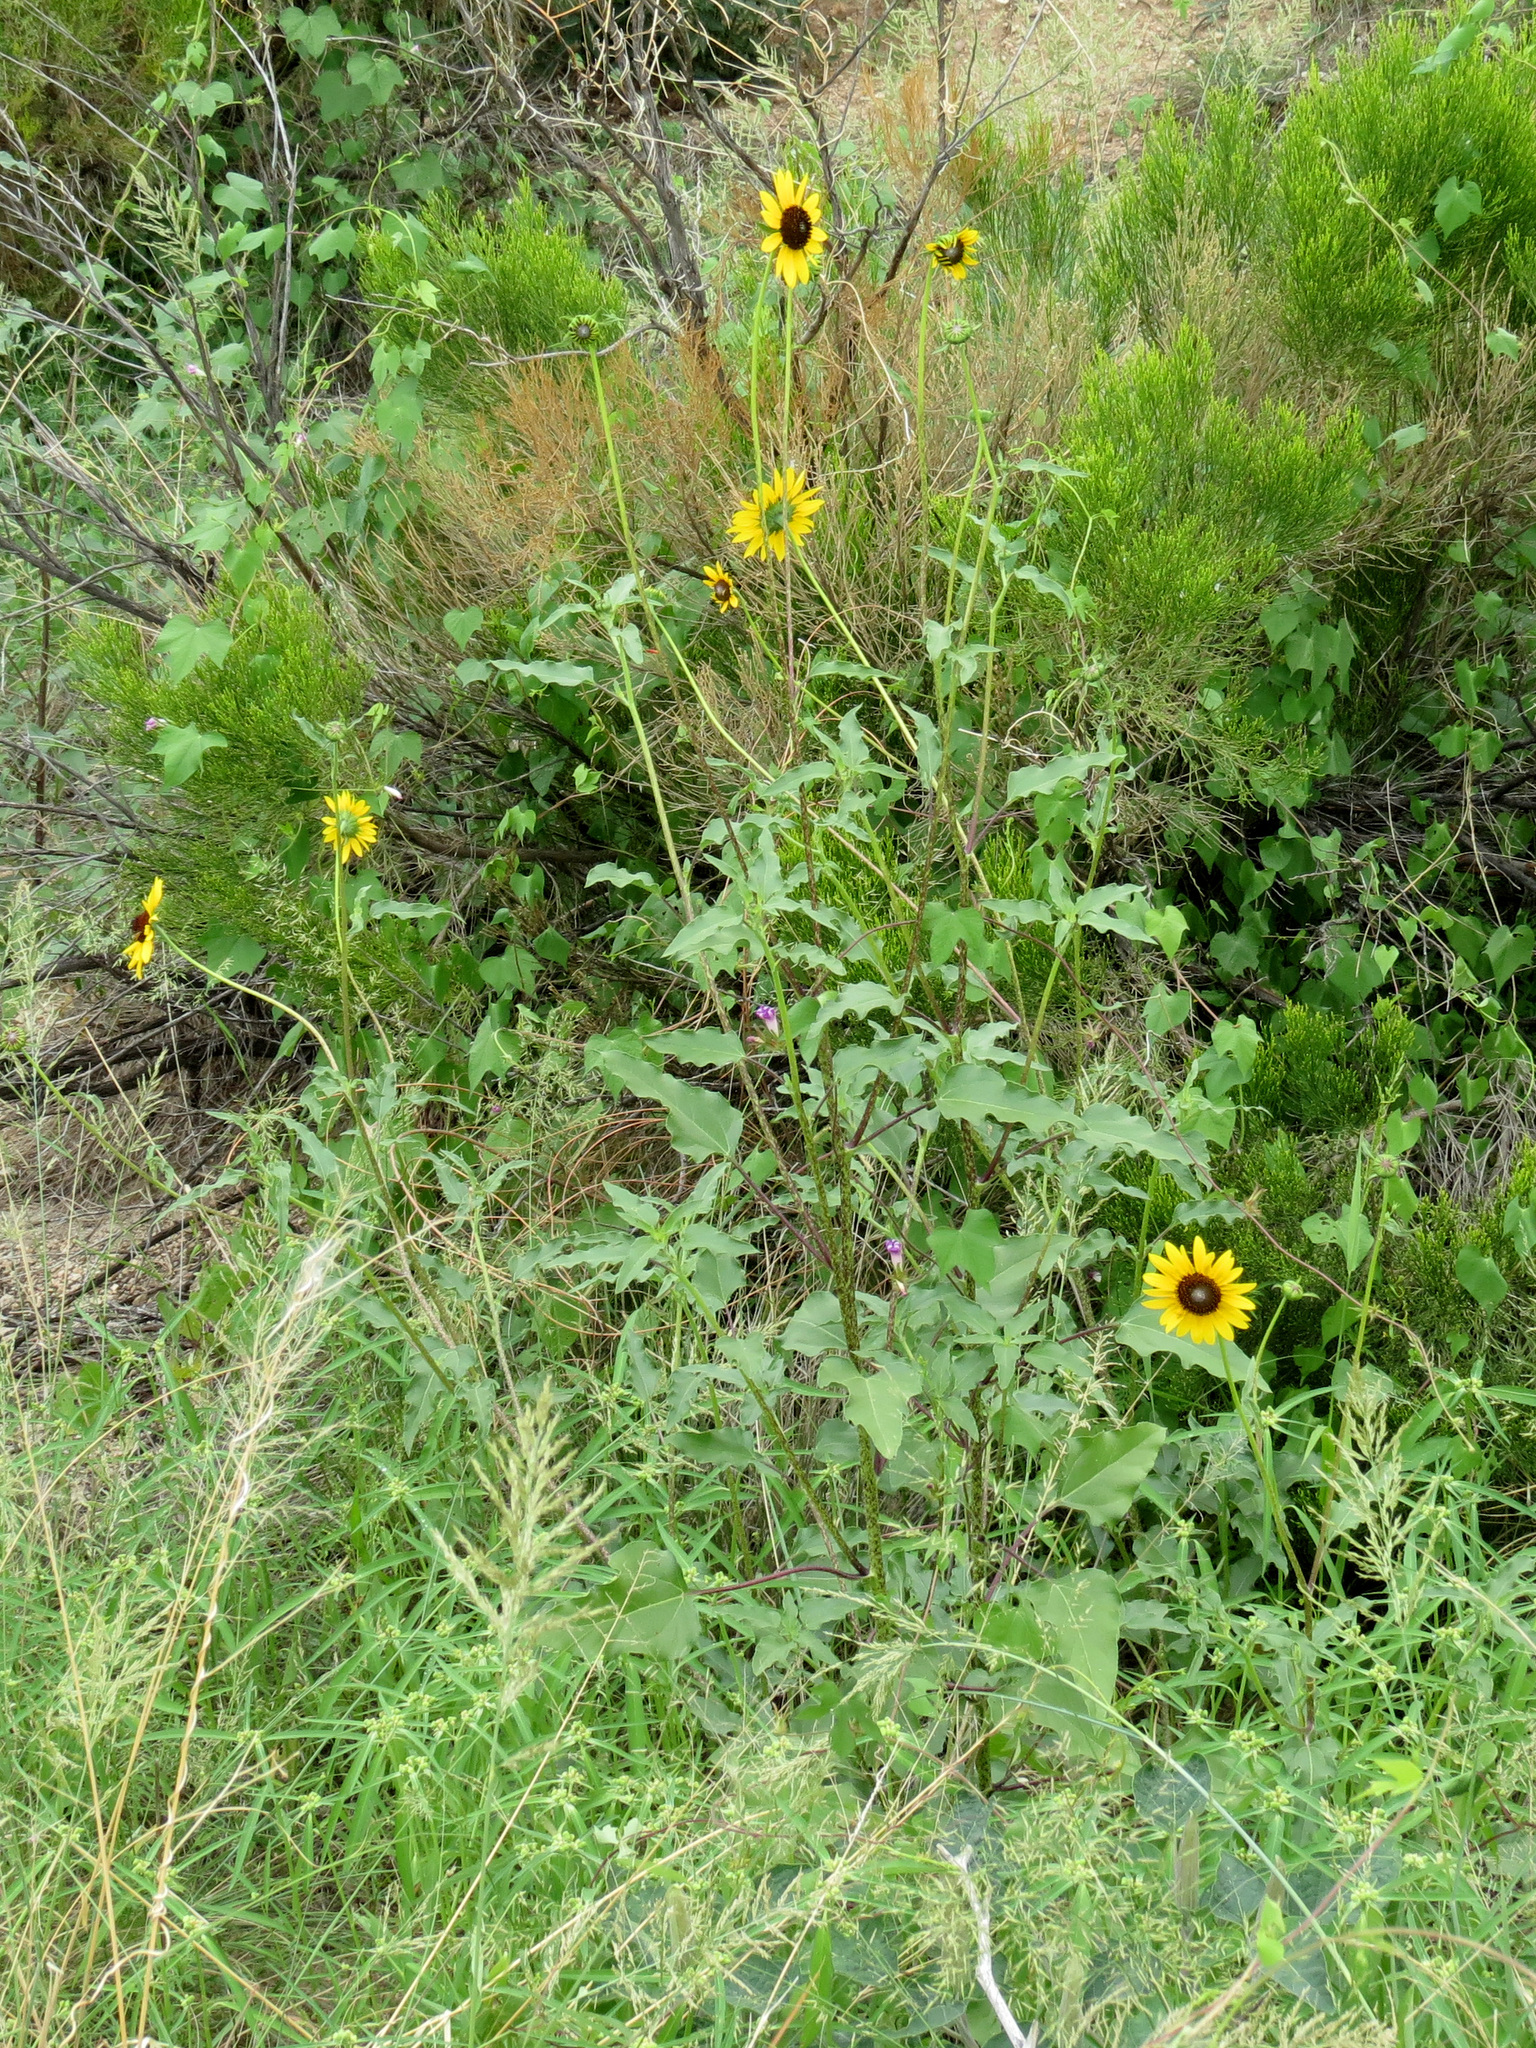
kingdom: Plantae
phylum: Tracheophyta
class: Magnoliopsida
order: Asterales
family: Asteraceae
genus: Helianthus
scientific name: Helianthus petiolaris
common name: Lesser sunflower
